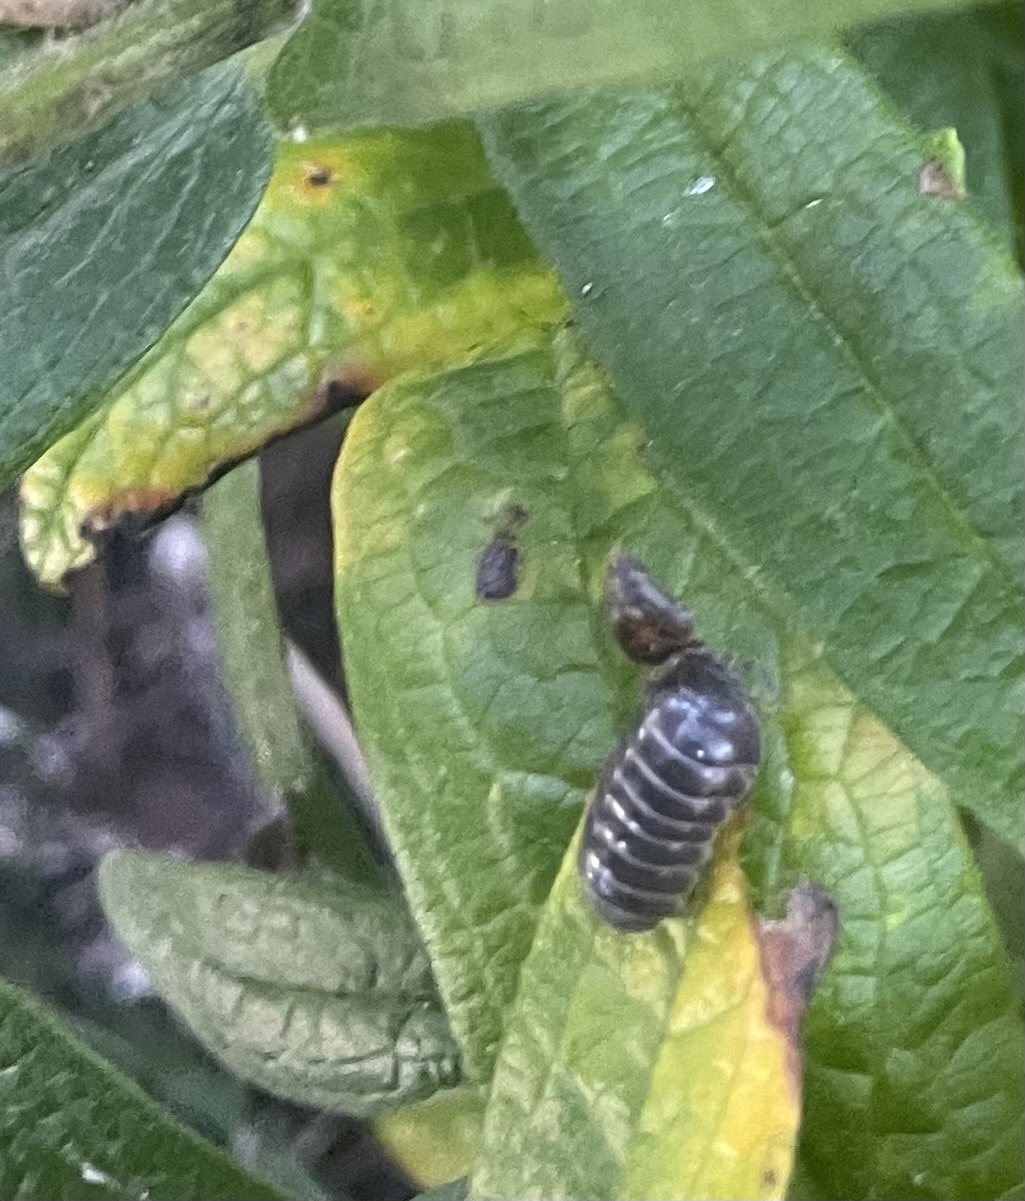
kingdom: Animalia
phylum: Arthropoda
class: Malacostraca
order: Isopoda
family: Armadillidiidae
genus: Armadillidium
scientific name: Armadillidium vulgare
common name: Common pill woodlouse
